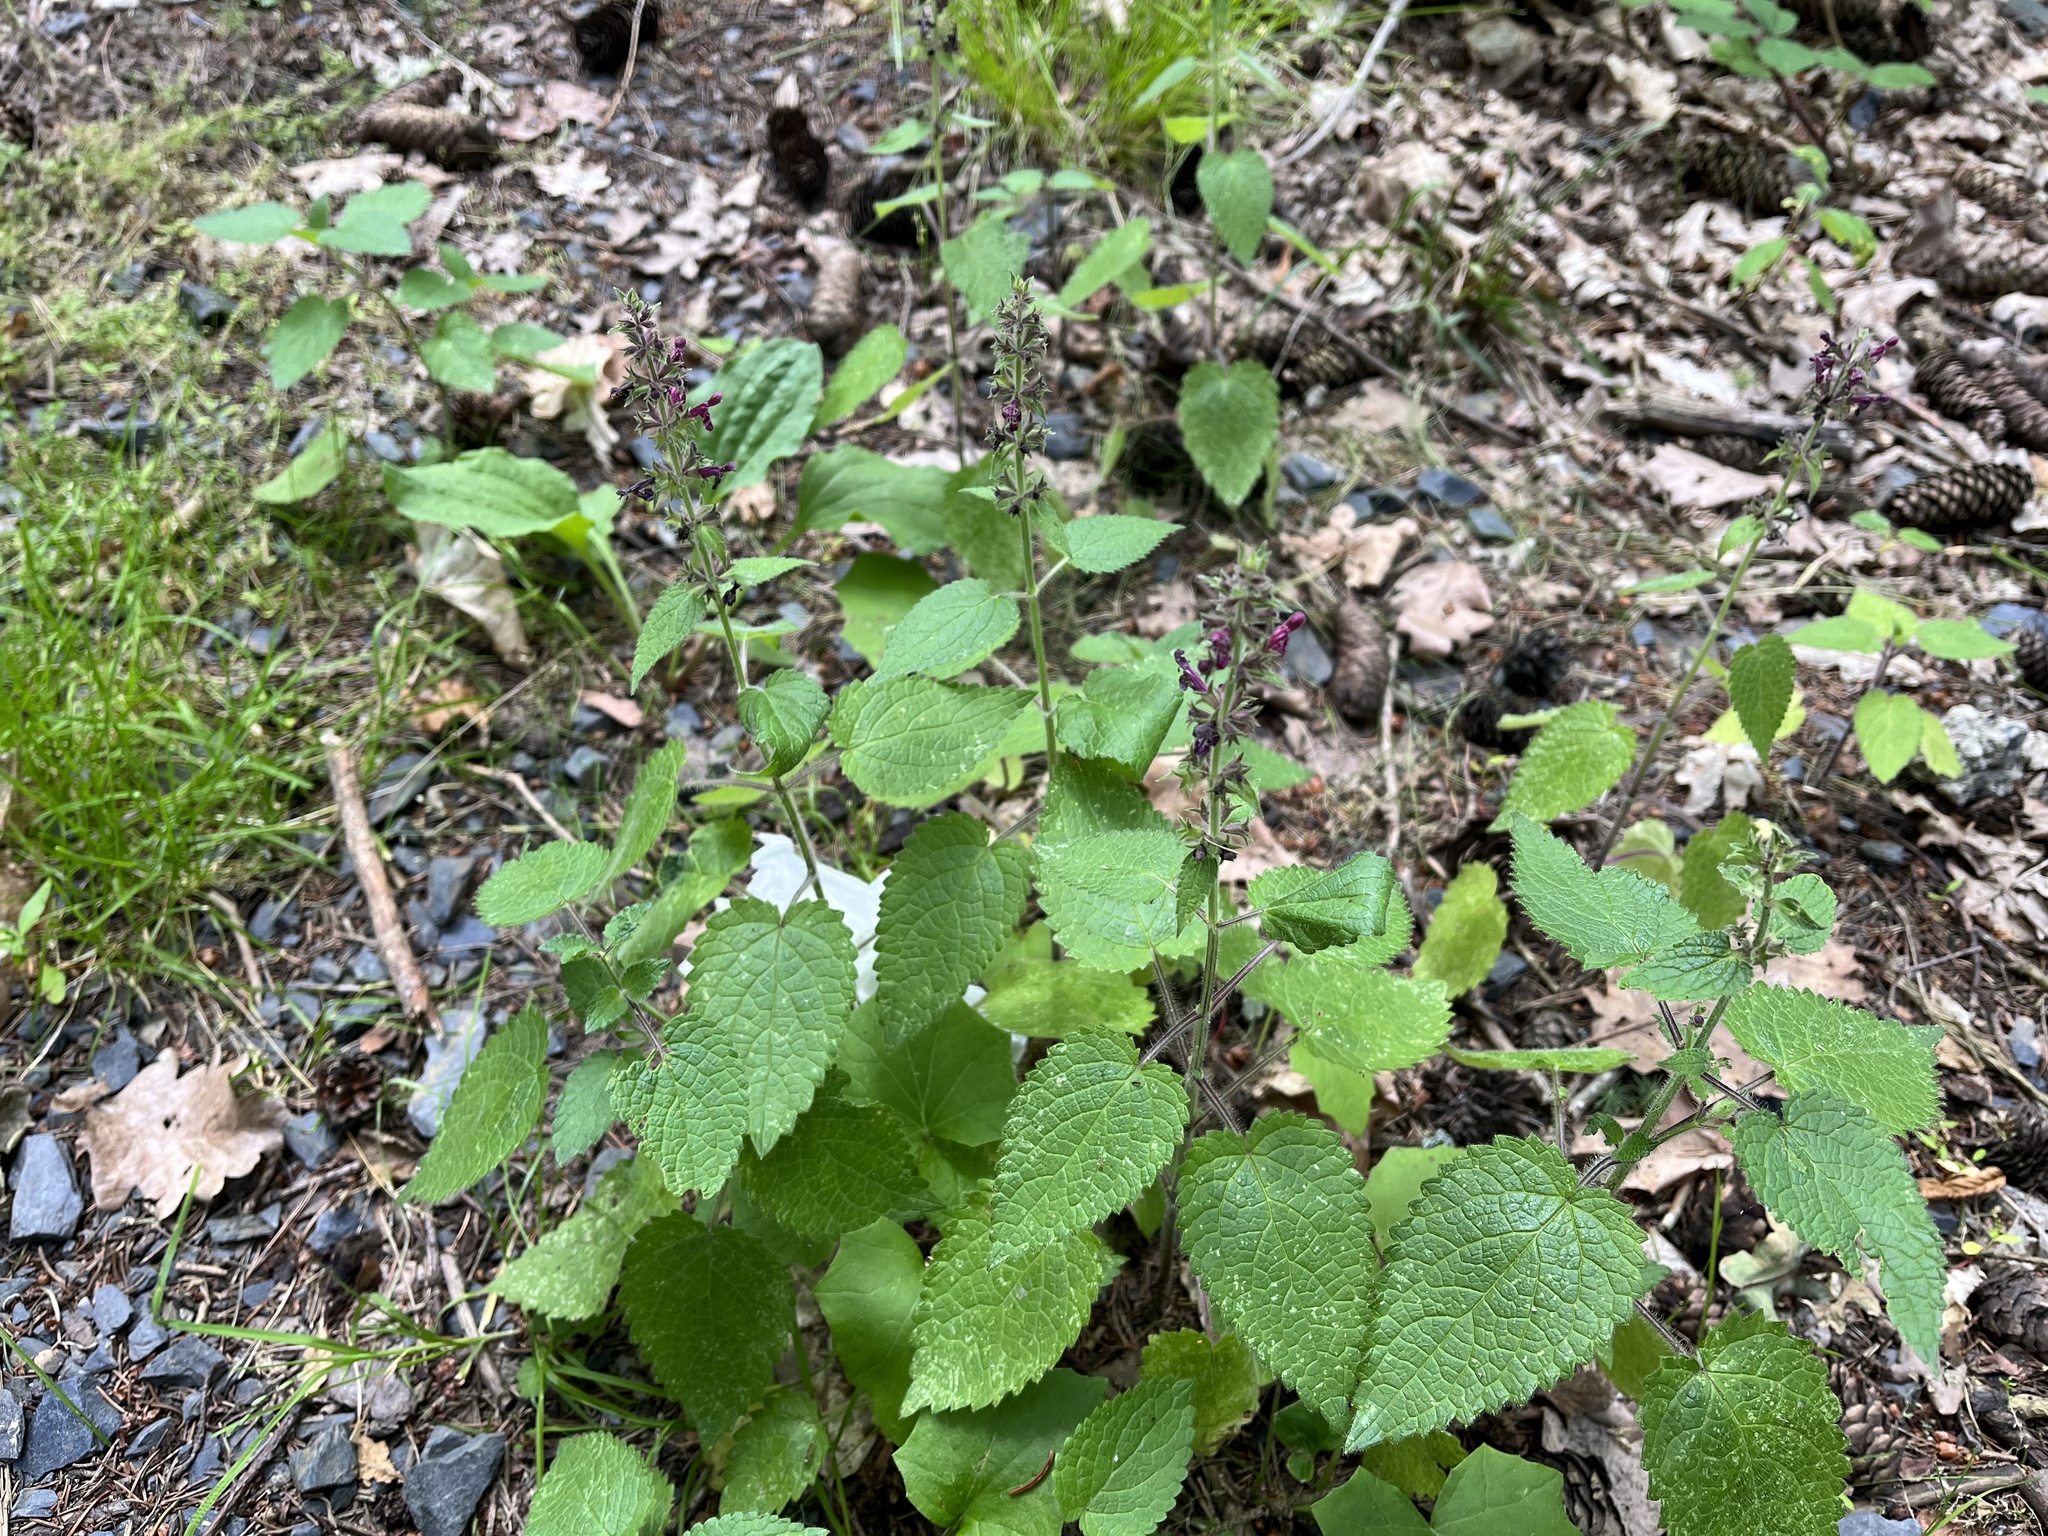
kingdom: Plantae
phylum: Tracheophyta
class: Magnoliopsida
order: Lamiales
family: Lamiaceae
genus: Stachys
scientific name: Stachys sylvatica
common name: Hedge woundwort
